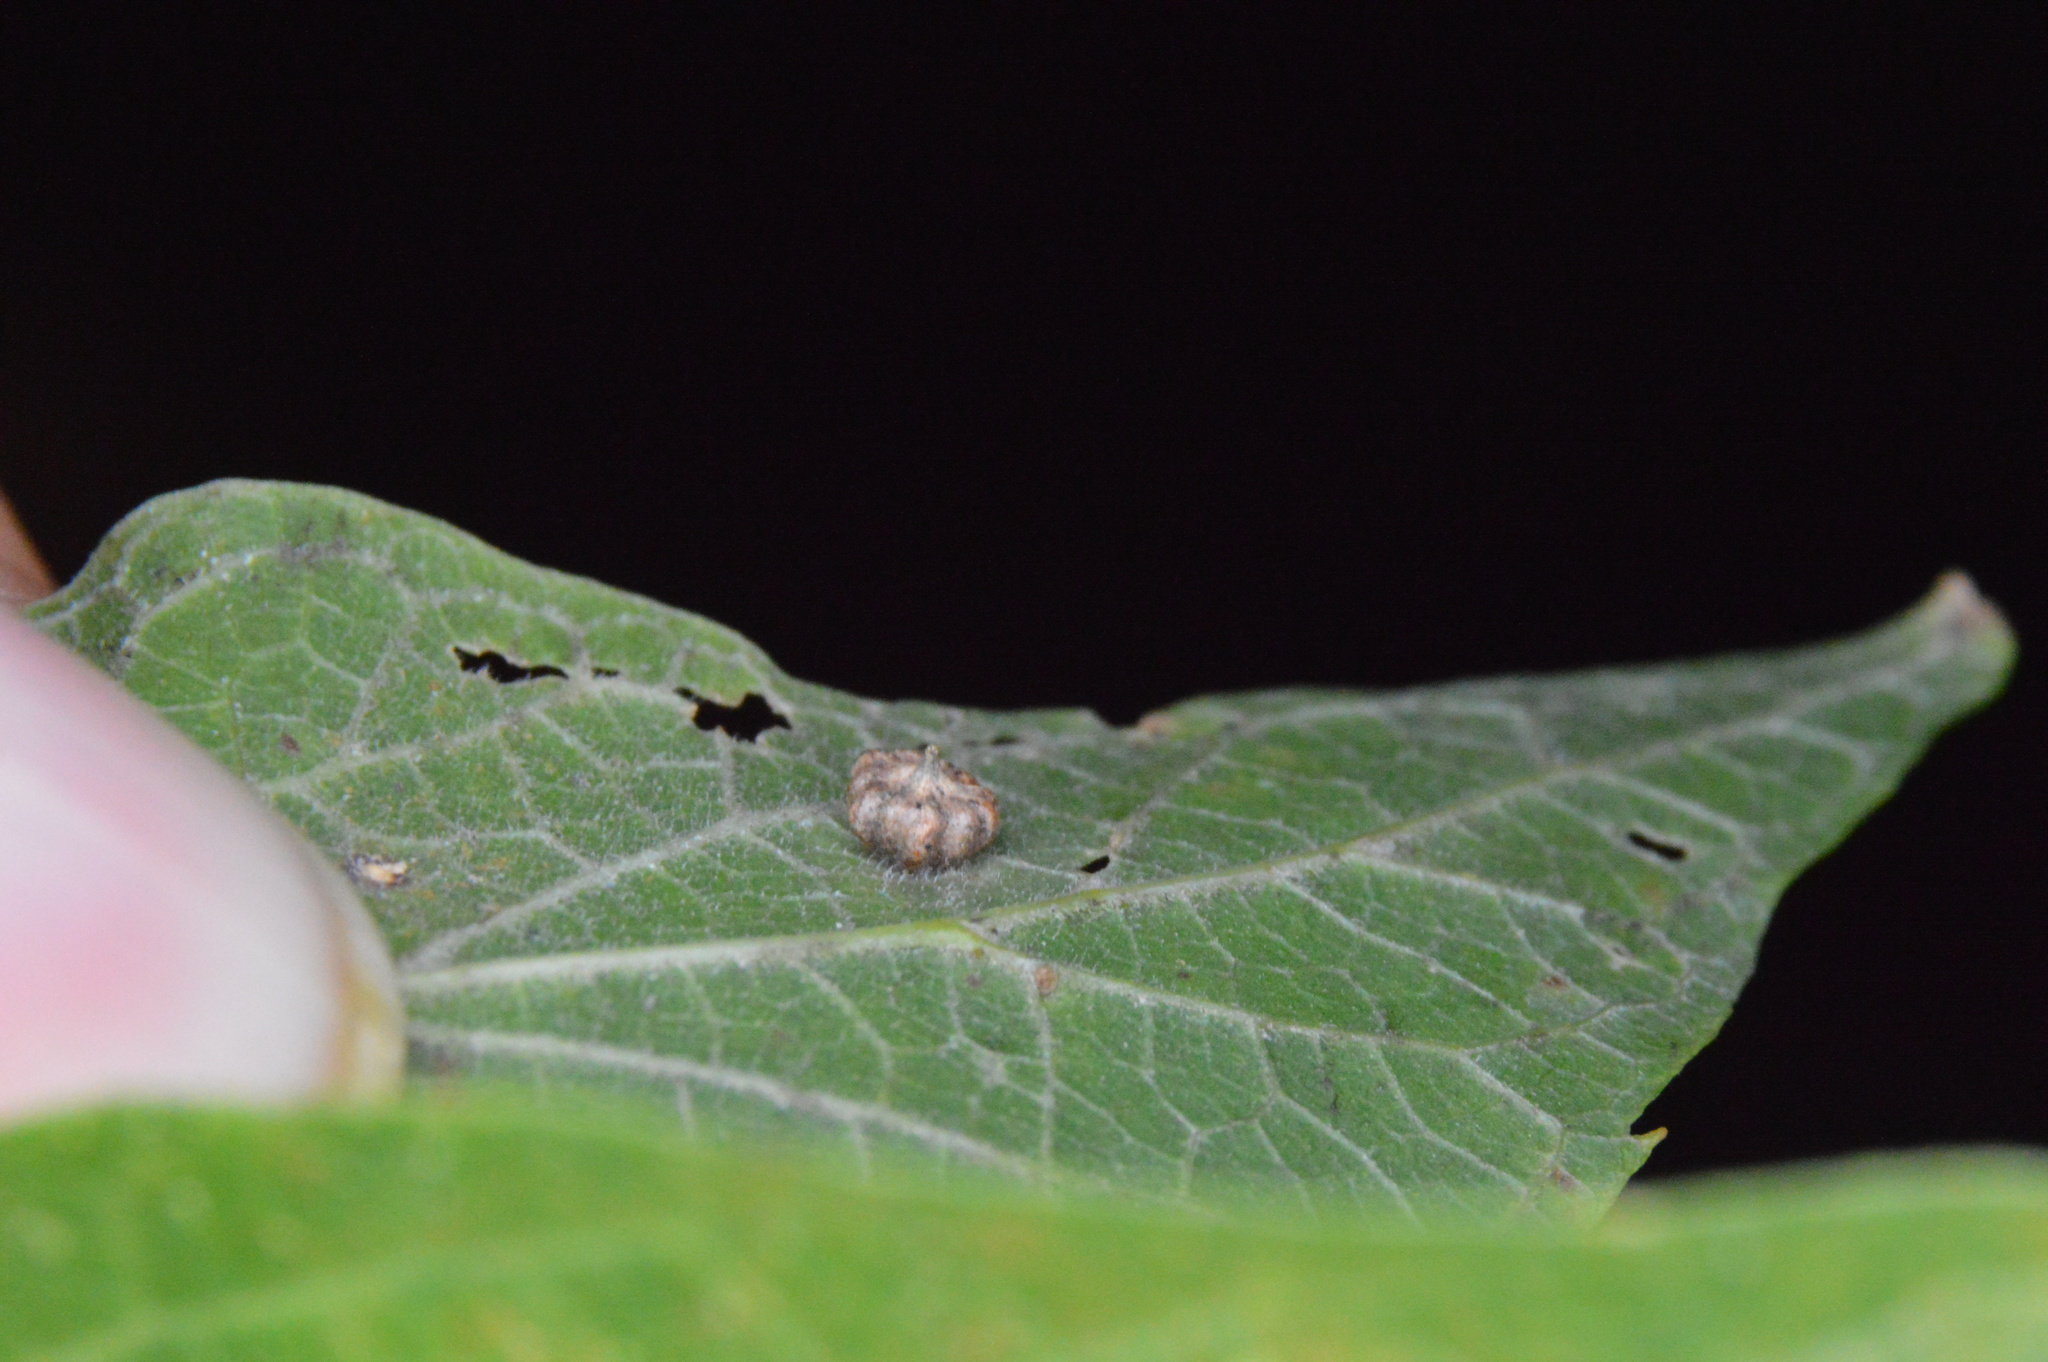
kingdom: Animalia
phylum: Arthropoda
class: Insecta
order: Diptera
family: Cecidomyiidae
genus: Celticecis
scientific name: Celticecis capsularis
